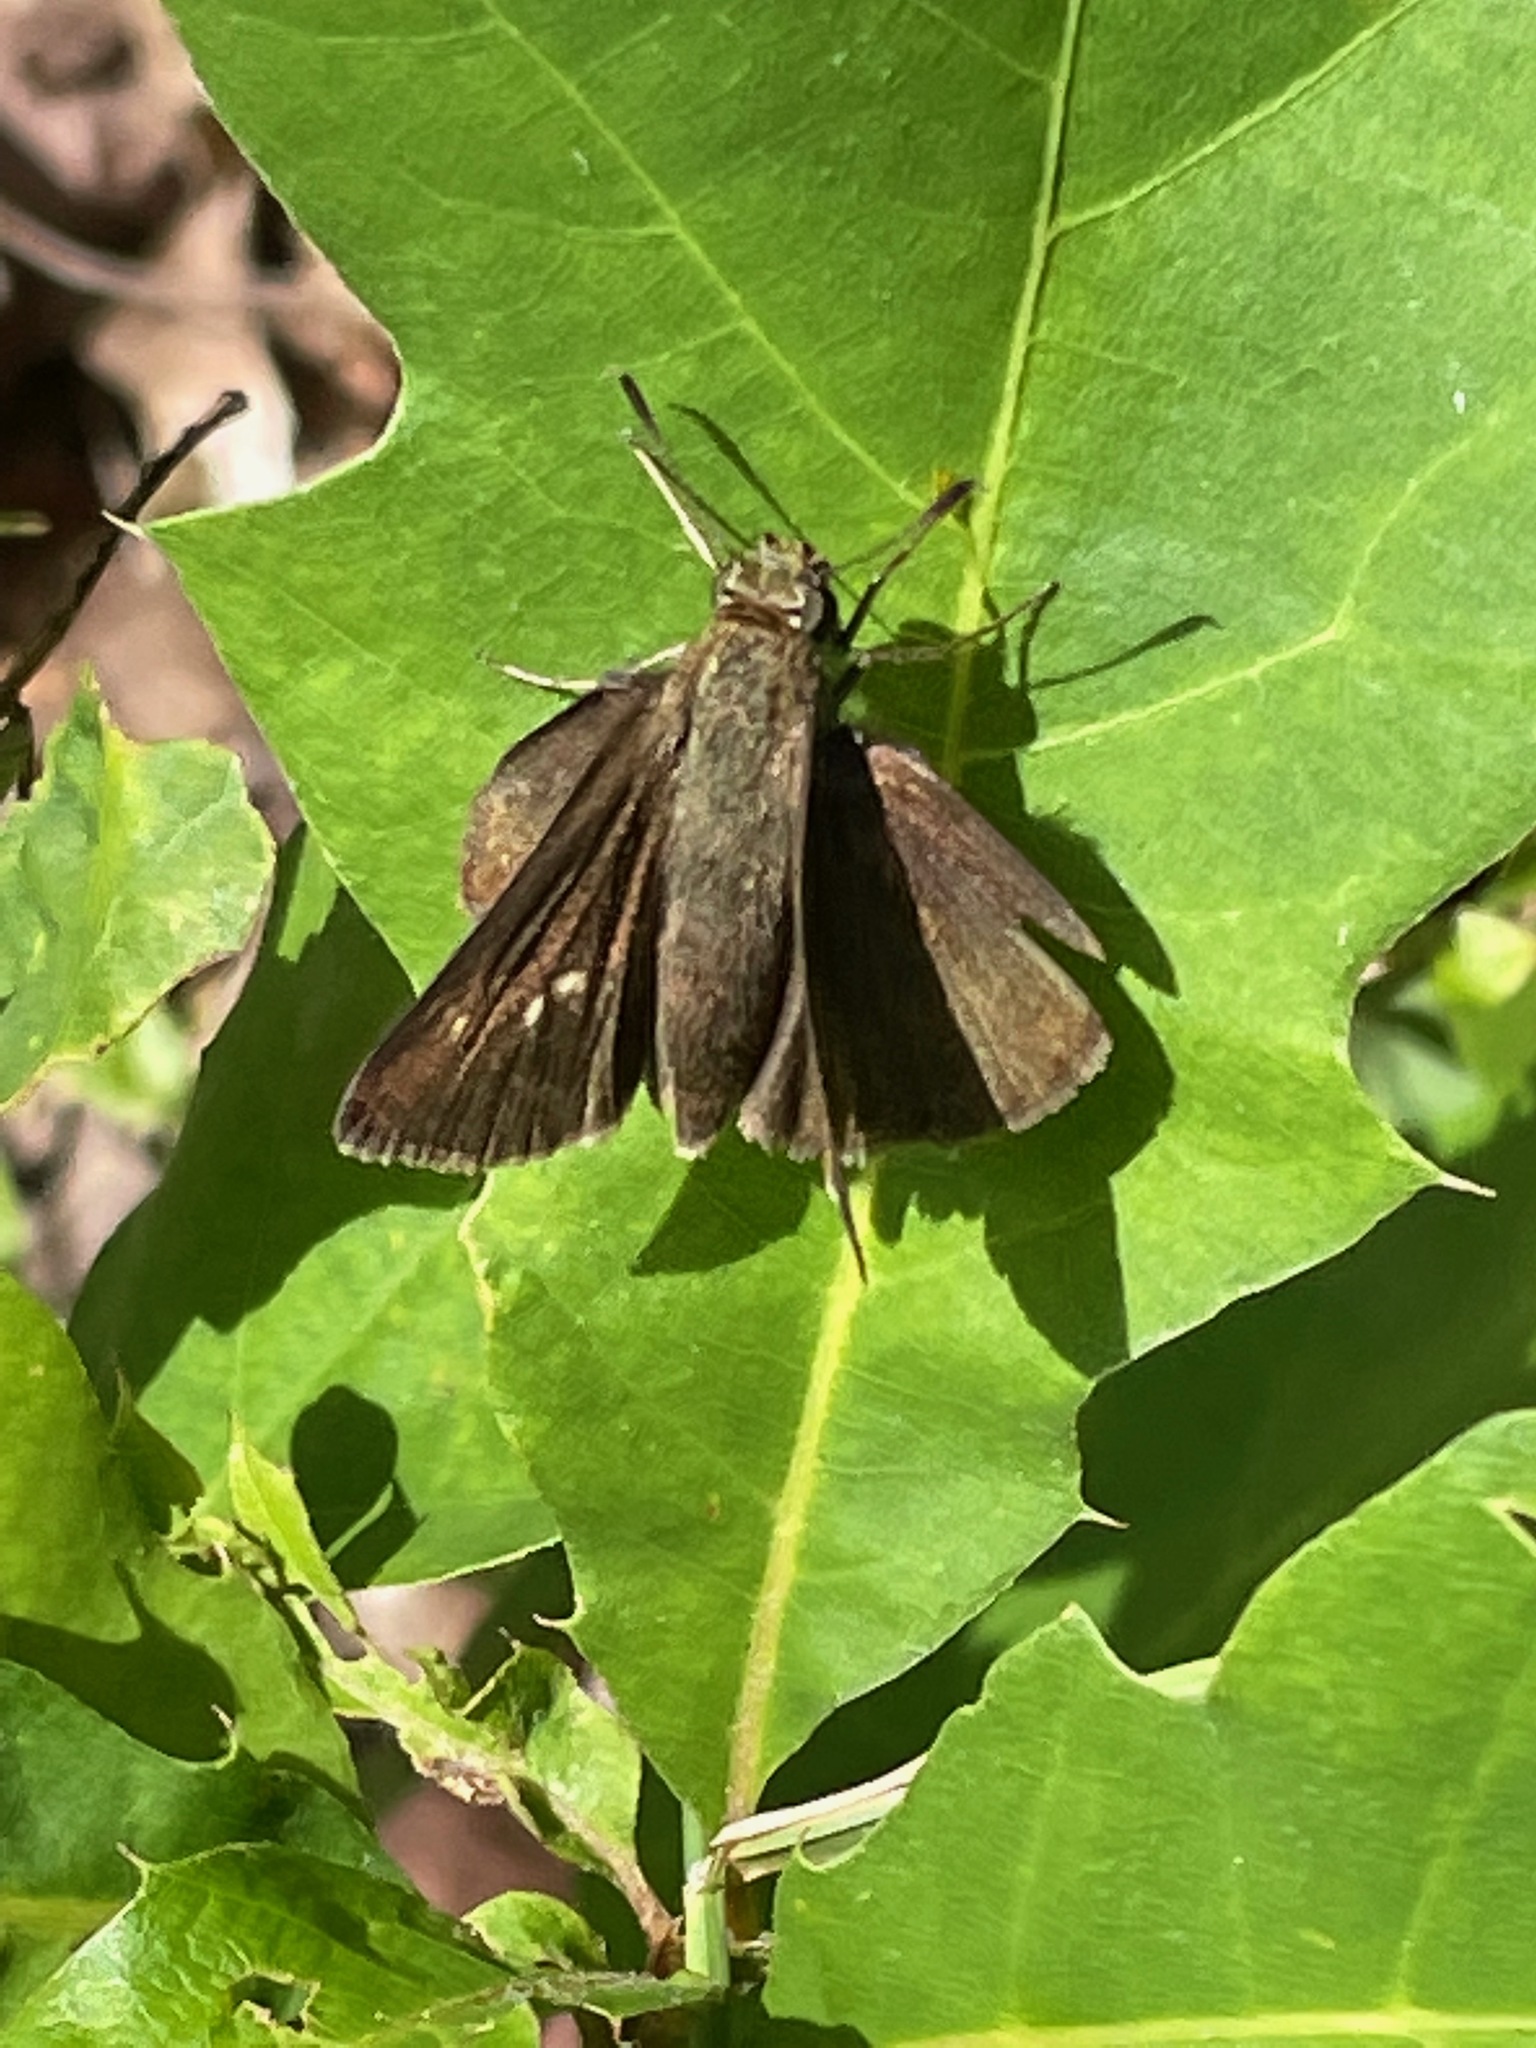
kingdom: Animalia
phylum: Arthropoda
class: Insecta
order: Lepidoptera
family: Hesperiidae
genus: Euphyes
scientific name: Euphyes vestris
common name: Dun skipper
